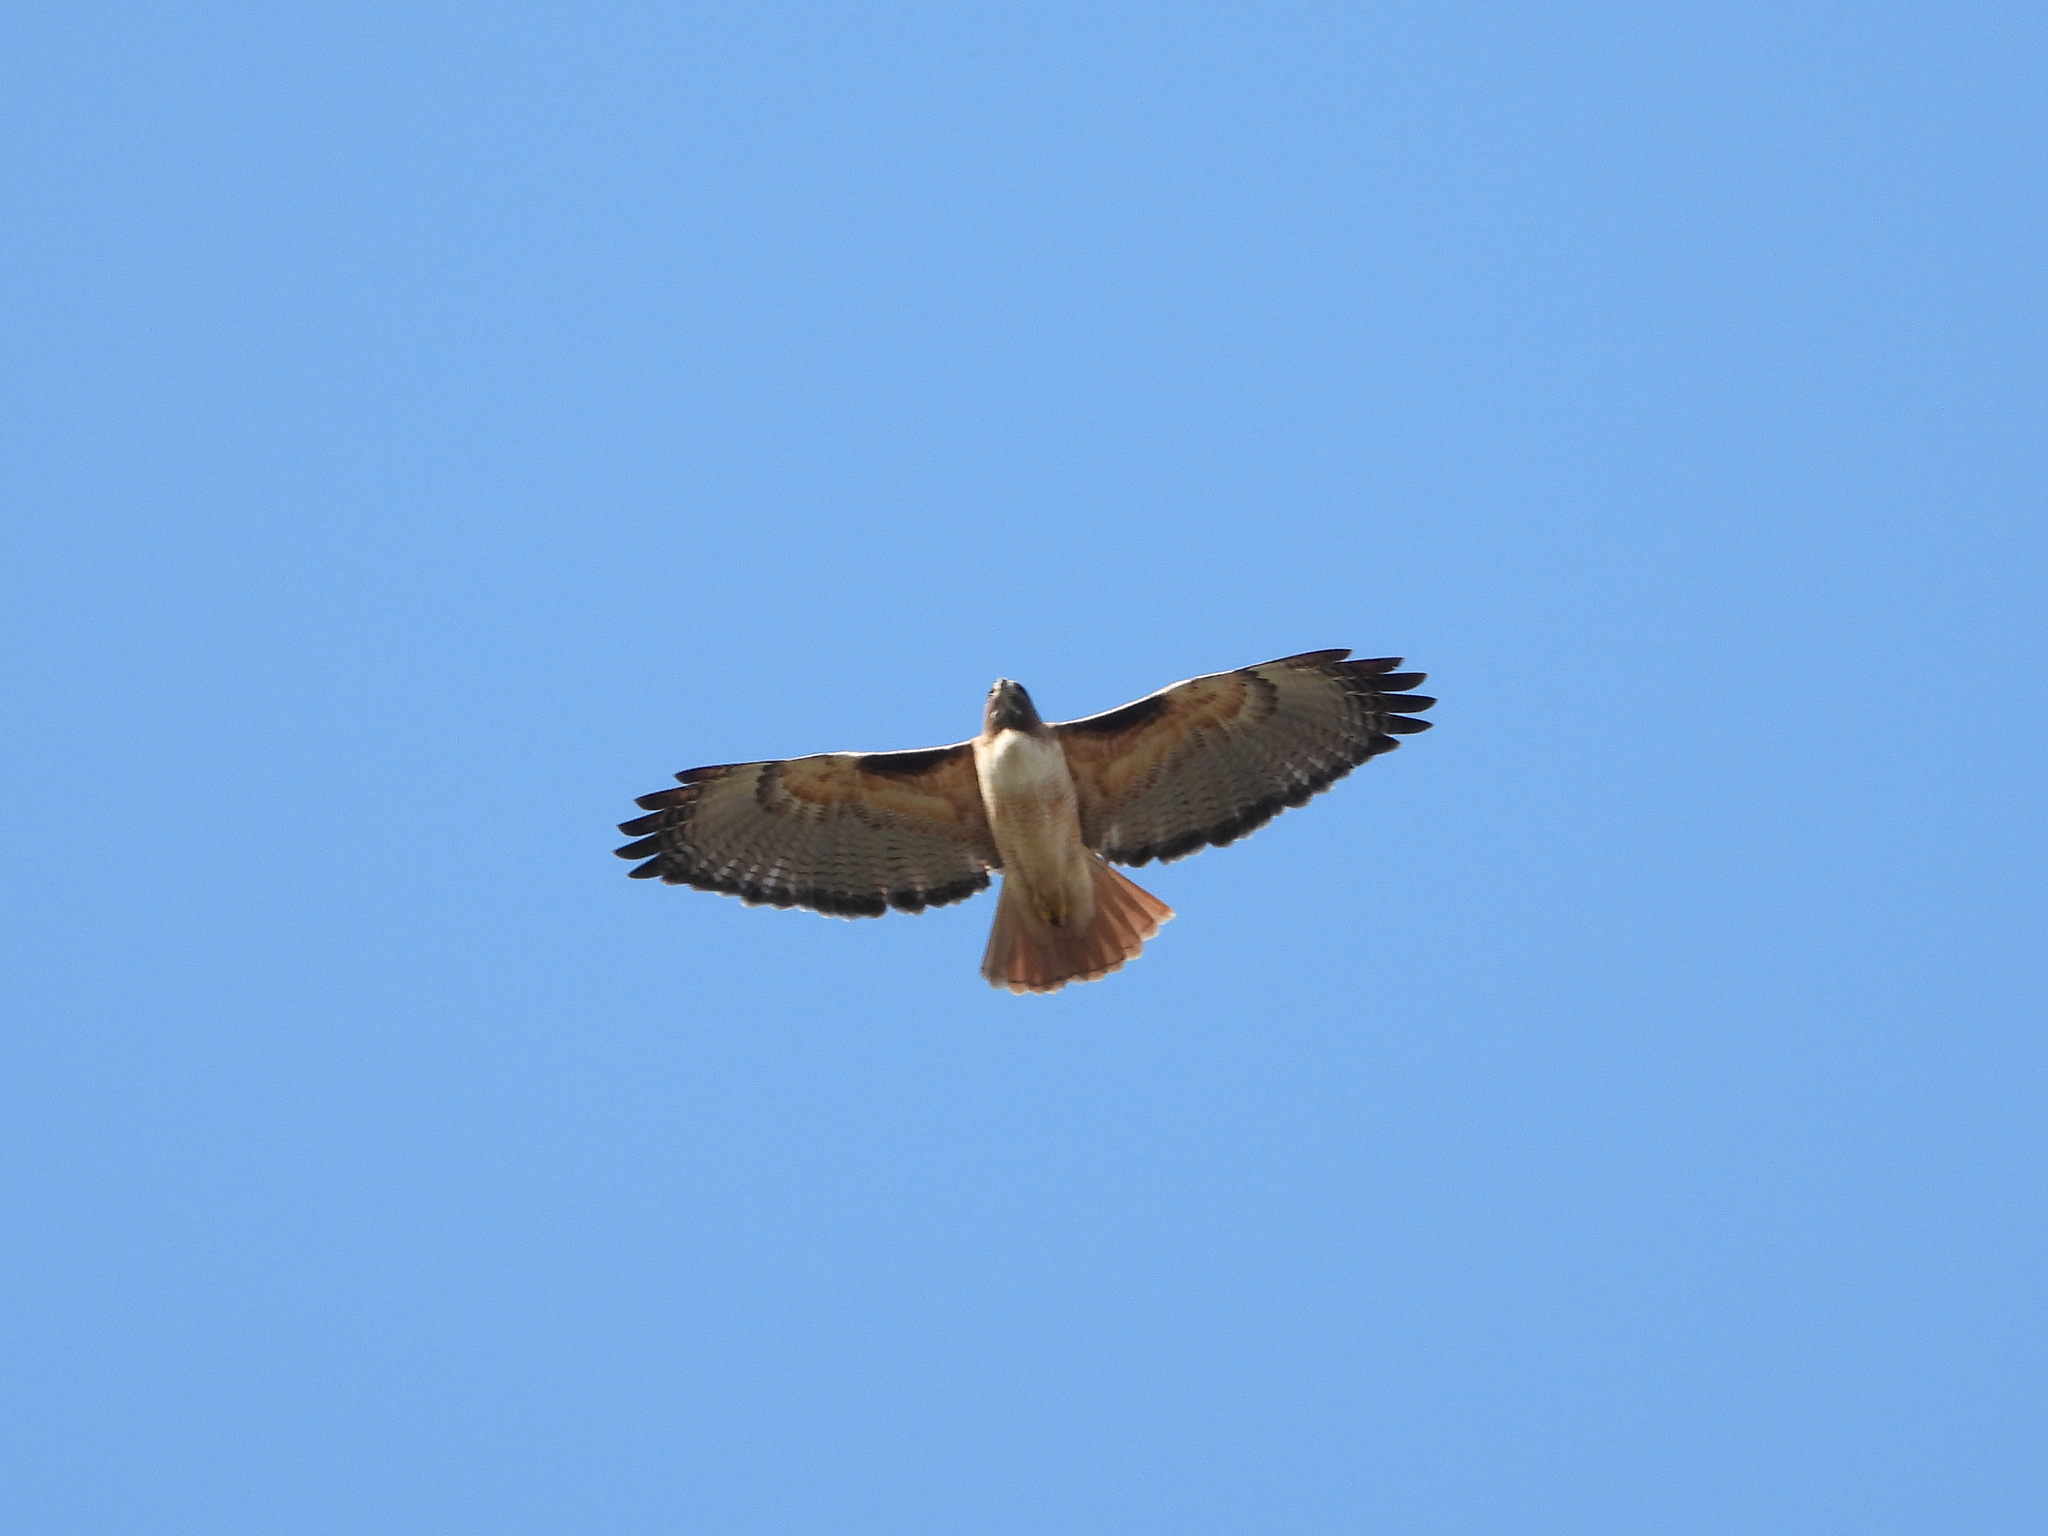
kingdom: Animalia
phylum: Chordata
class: Aves
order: Accipitriformes
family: Accipitridae
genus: Buteo
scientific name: Buteo jamaicensis
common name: Red-tailed hawk
